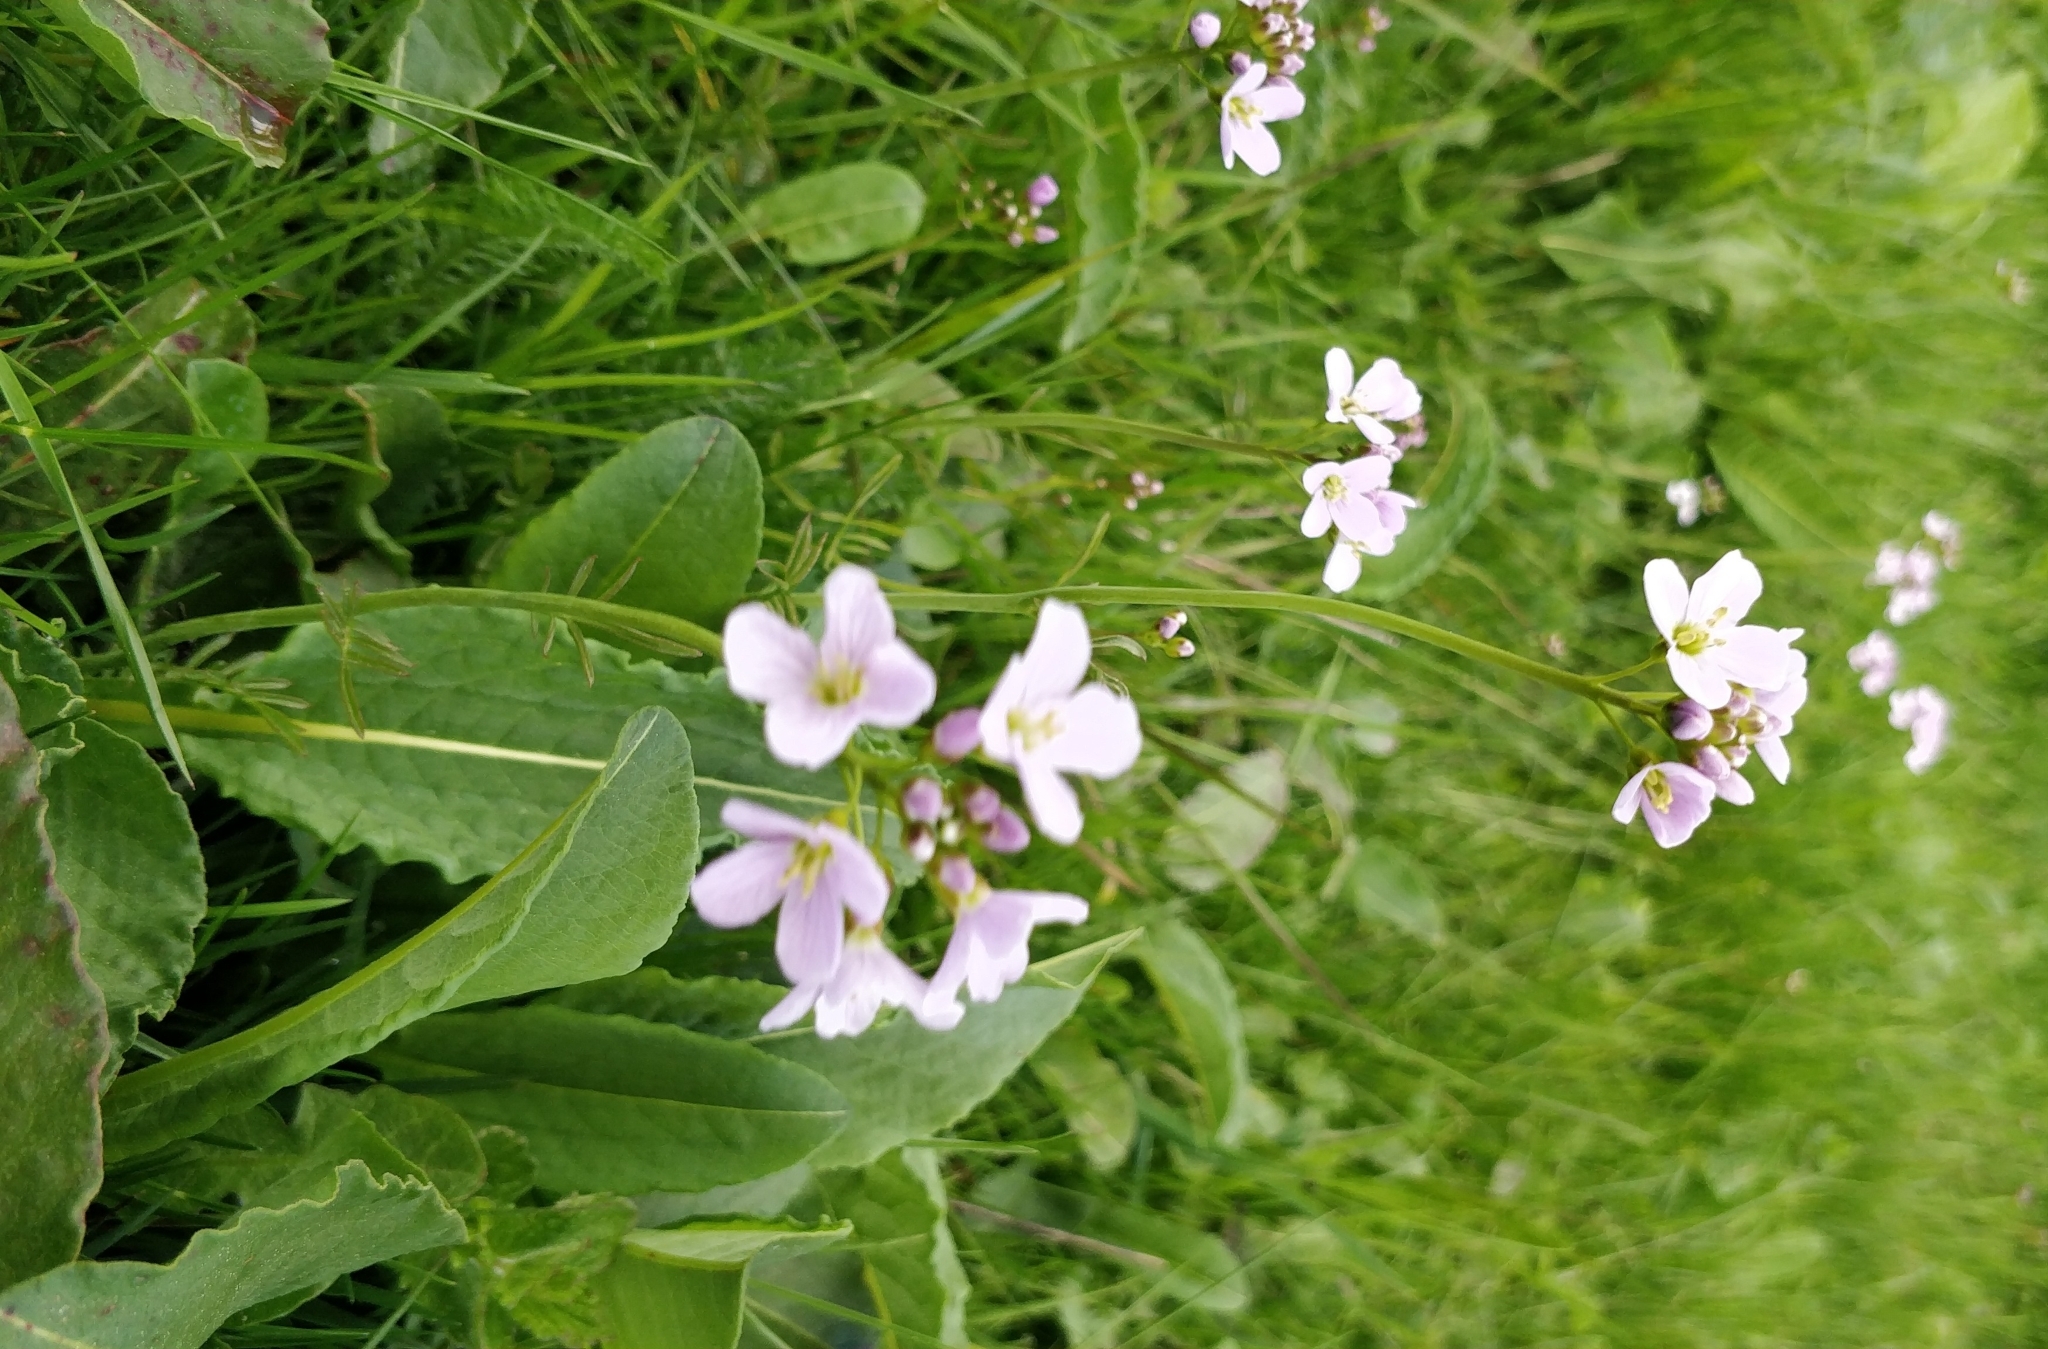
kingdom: Plantae
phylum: Tracheophyta
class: Magnoliopsida
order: Brassicales
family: Brassicaceae
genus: Cardamine
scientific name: Cardamine pratensis
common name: Cuckoo flower
